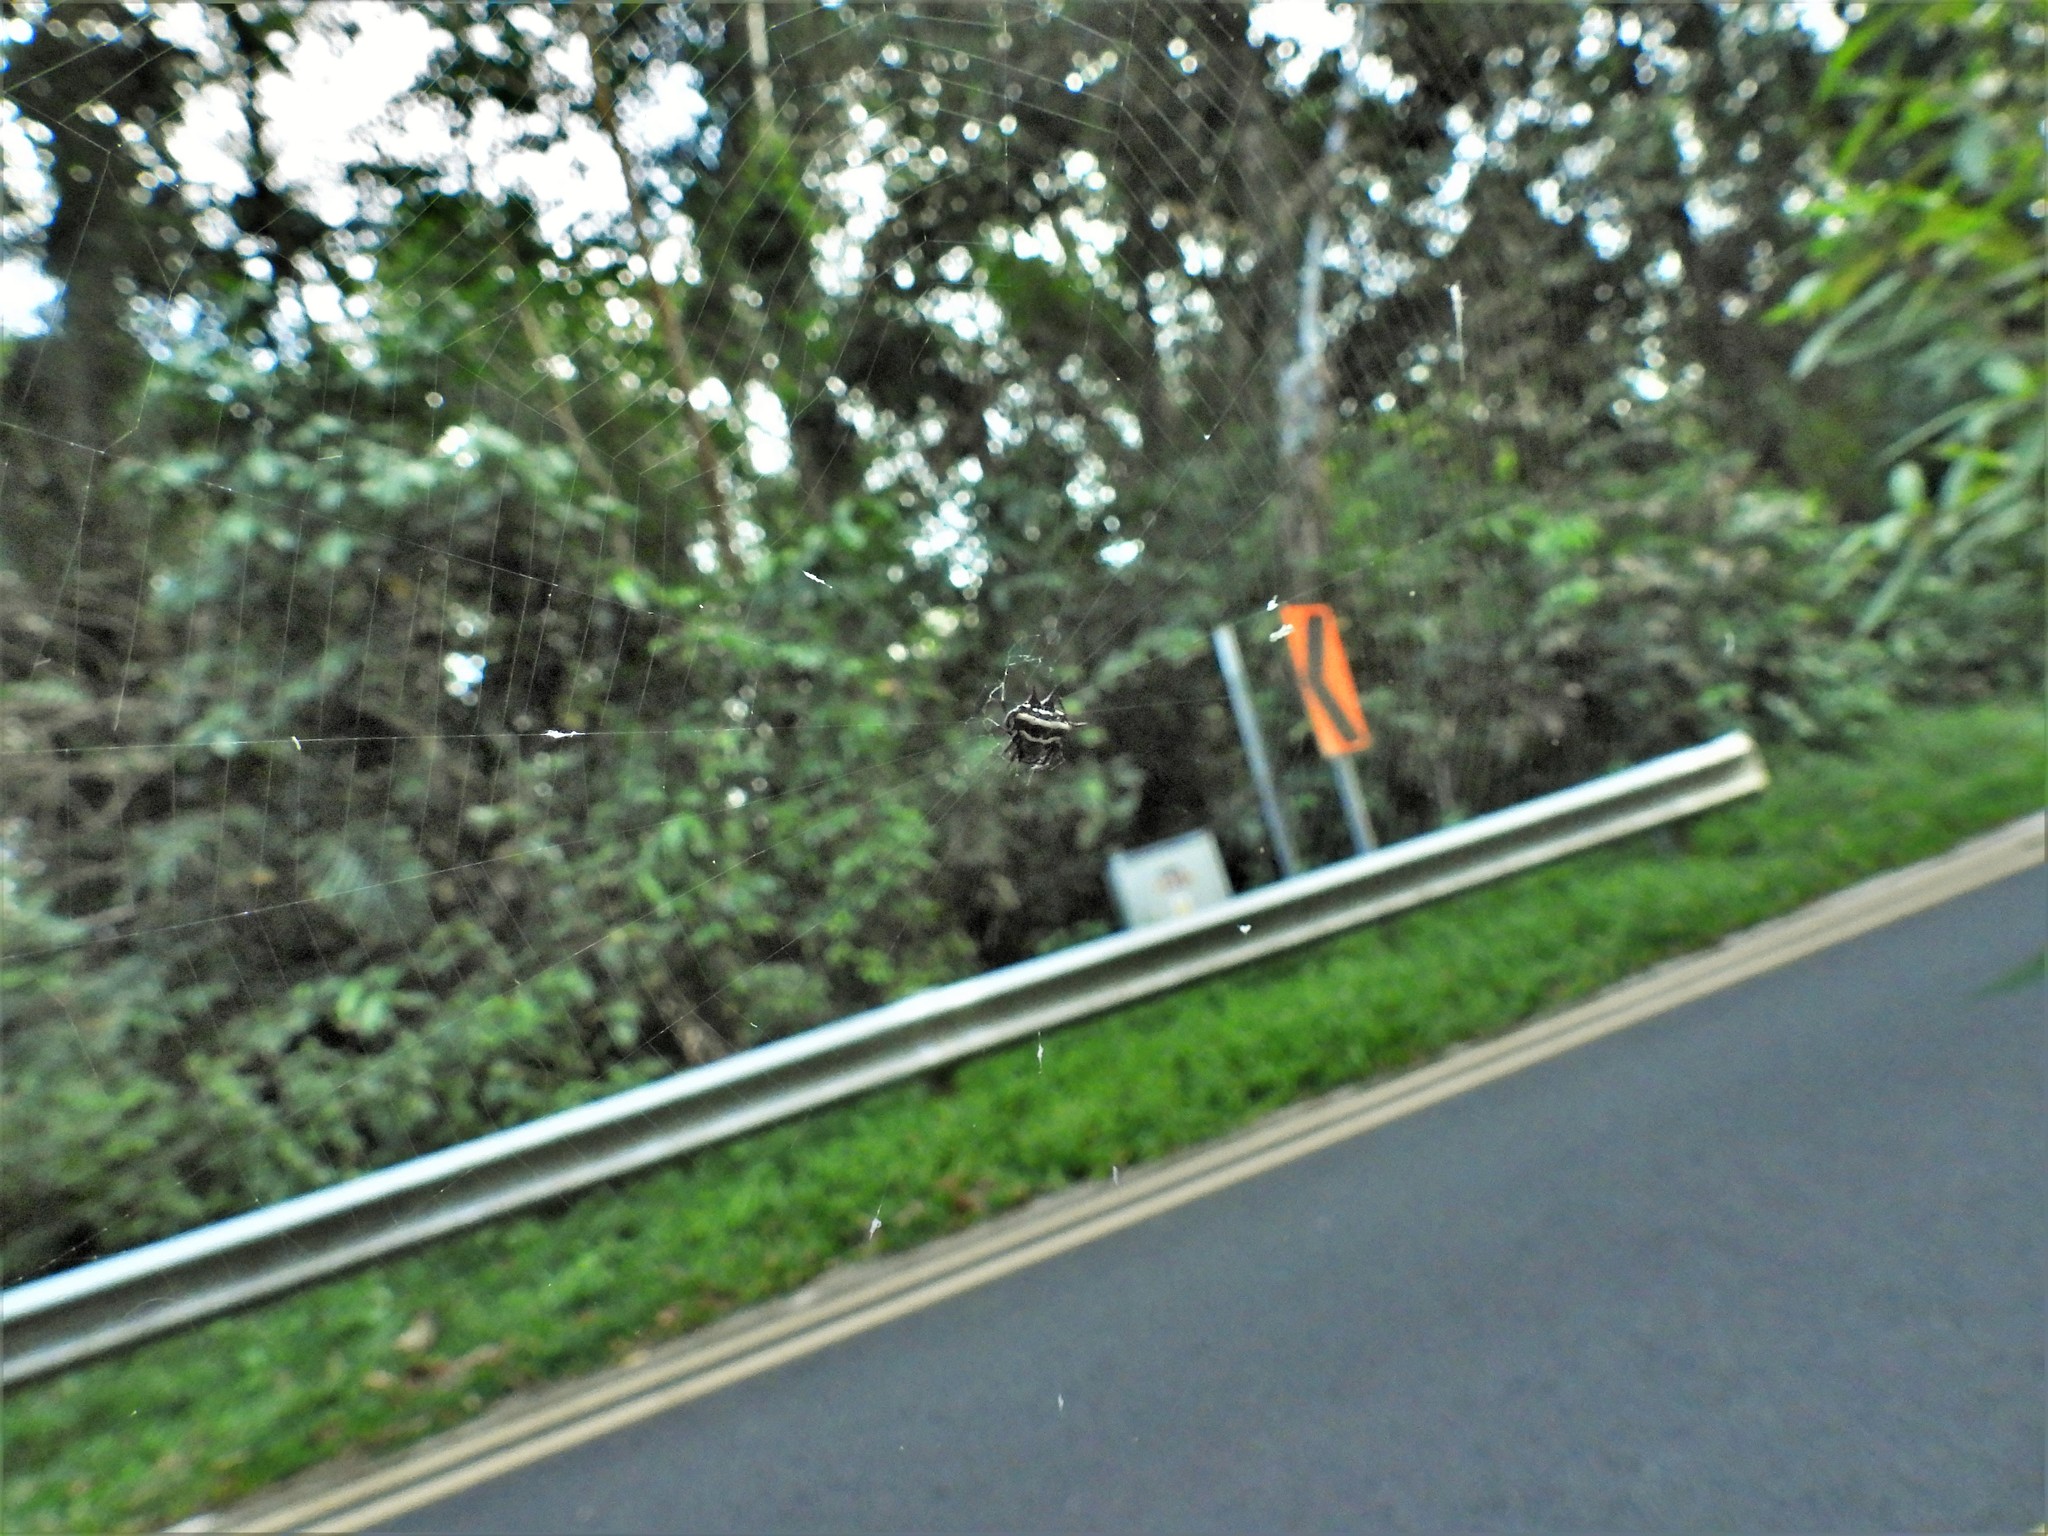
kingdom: Animalia
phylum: Arthropoda
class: Arachnida
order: Araneae
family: Araneidae
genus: Gasteracantha
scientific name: Gasteracantha doriae
